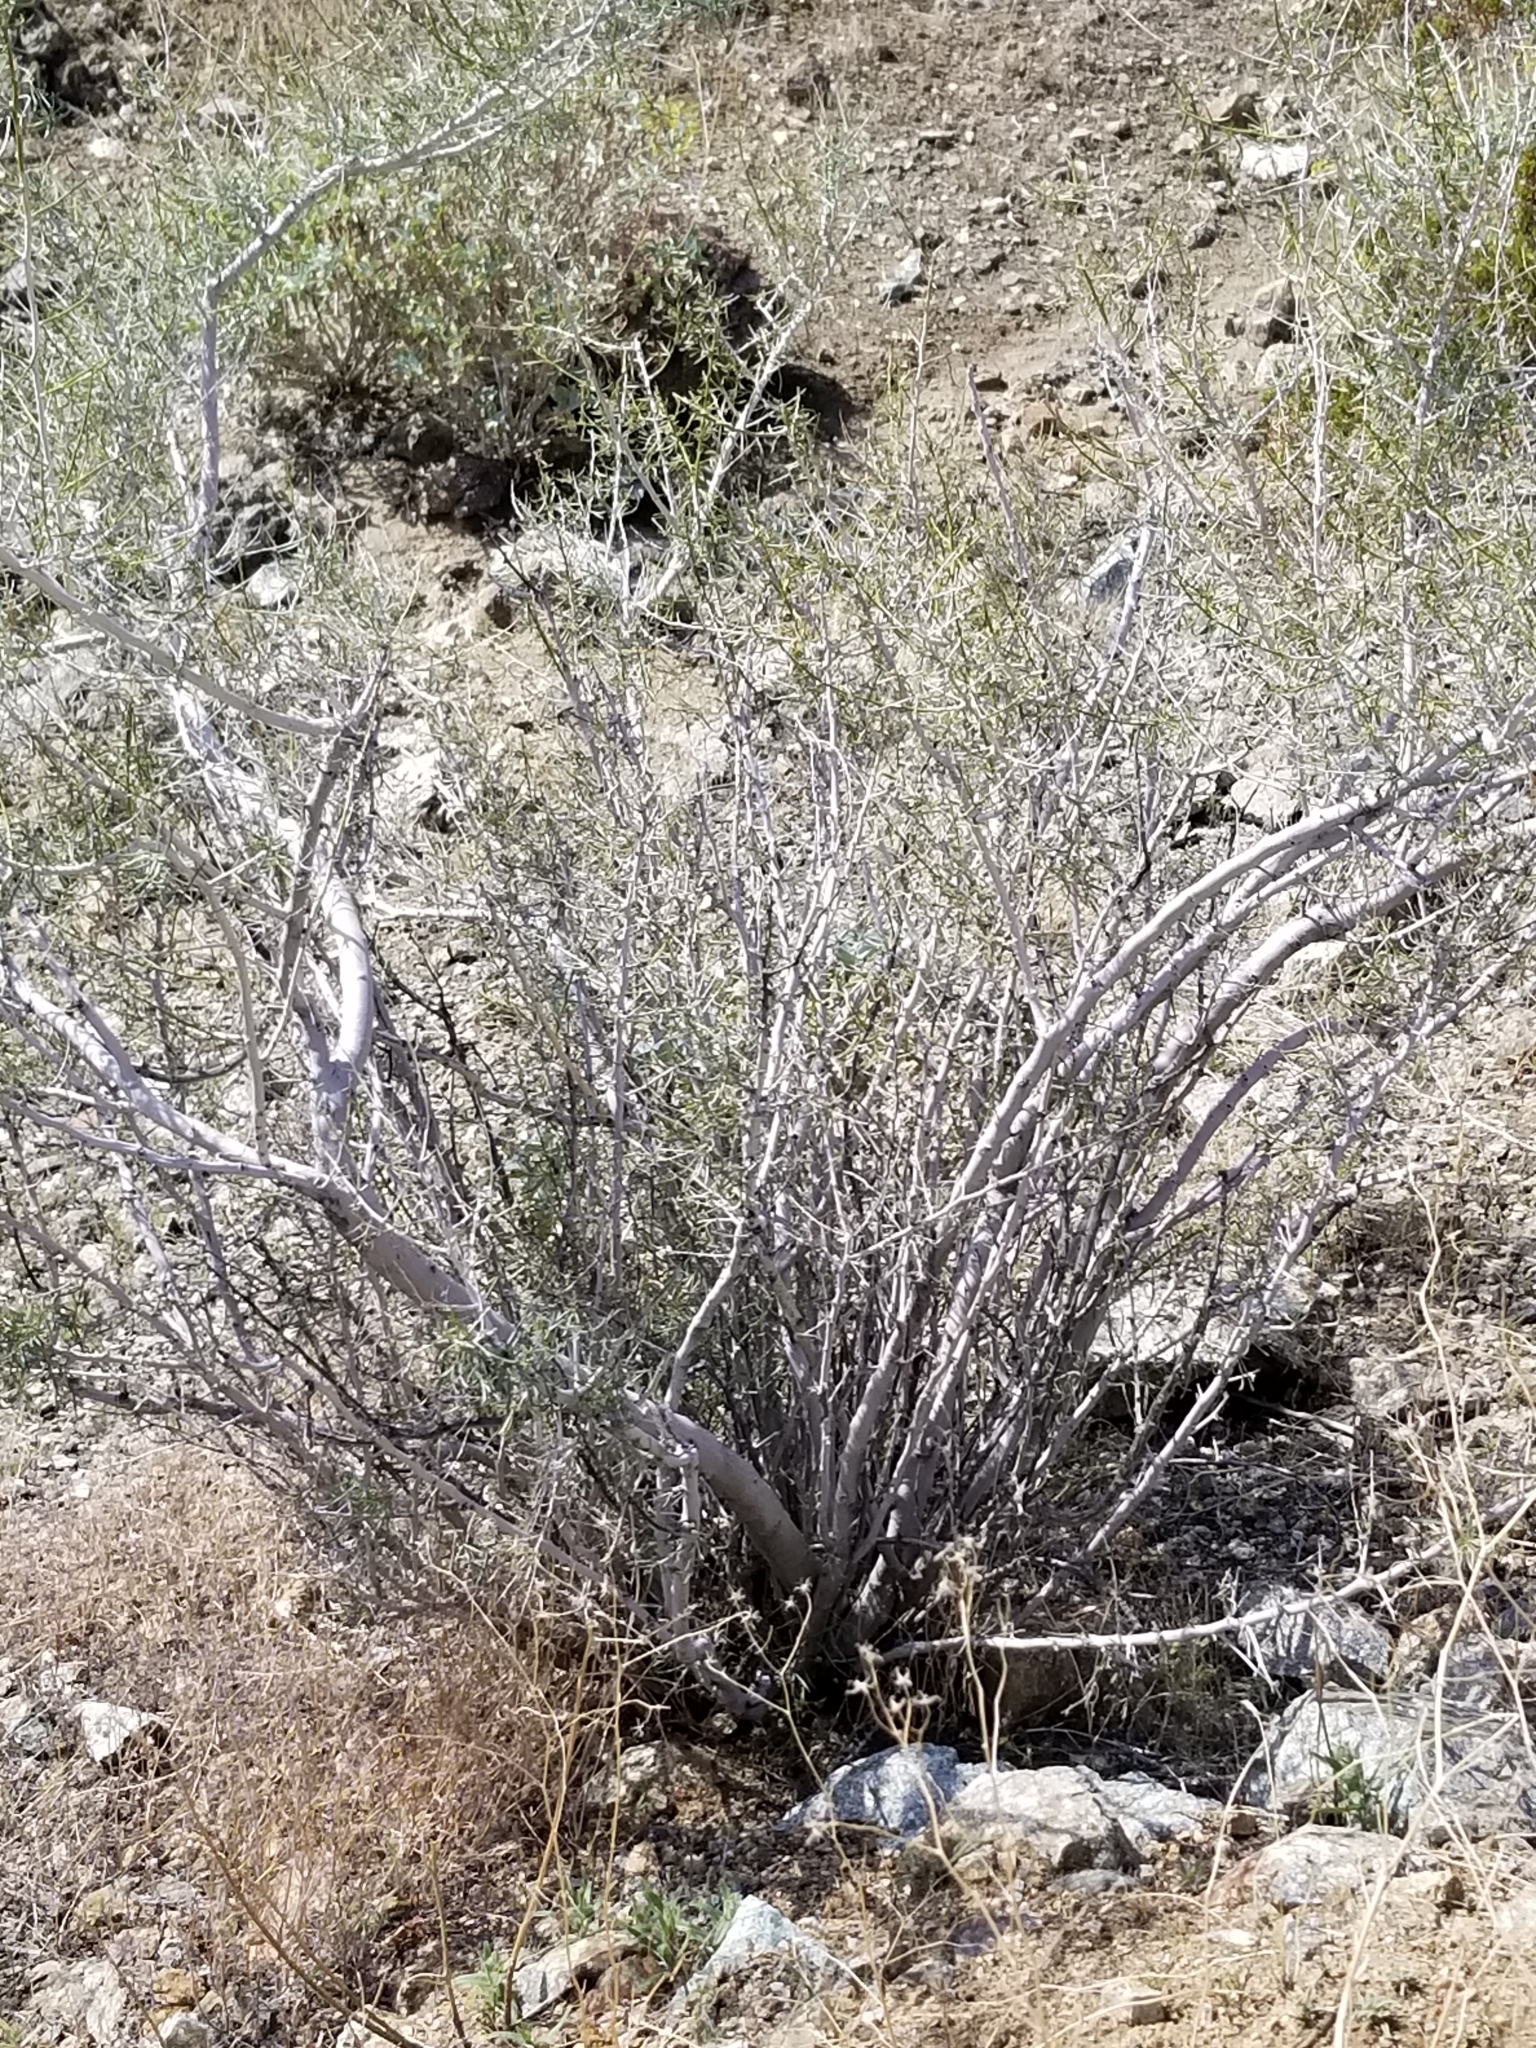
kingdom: Plantae
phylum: Tracheophyta
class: Magnoliopsida
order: Fabales
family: Fabaceae
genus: Psorothamnus
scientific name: Psorothamnus schottii
